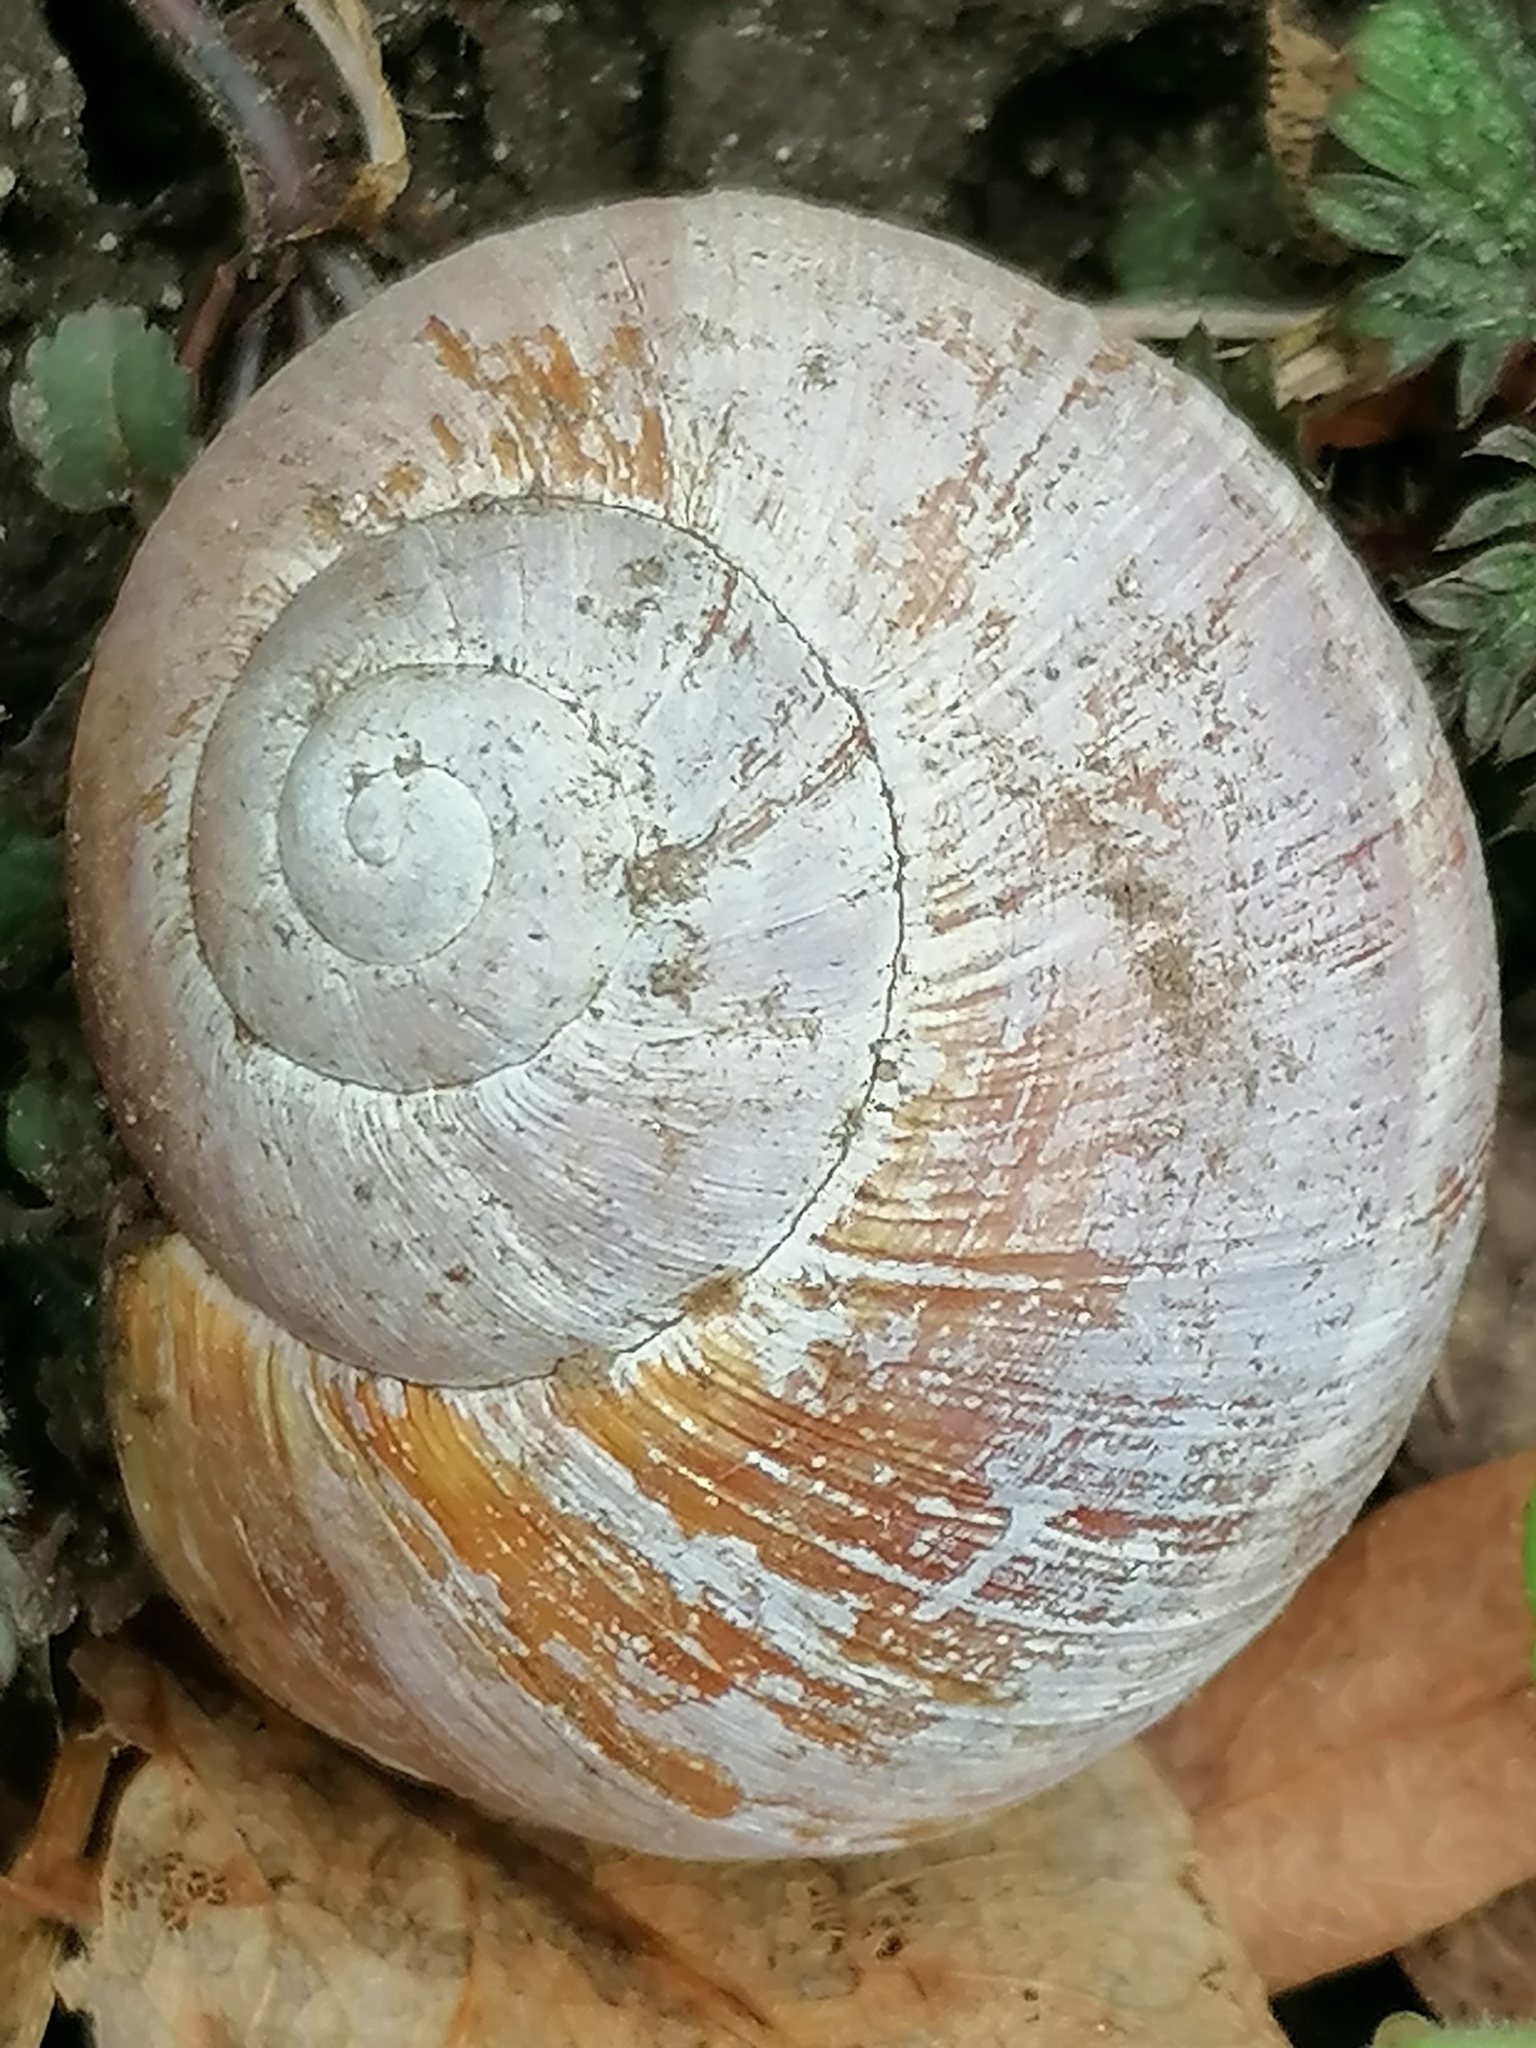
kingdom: Animalia
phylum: Mollusca
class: Gastropoda
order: Stylommatophora
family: Helicidae
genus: Helix
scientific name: Helix pomatia
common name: Roman snail
